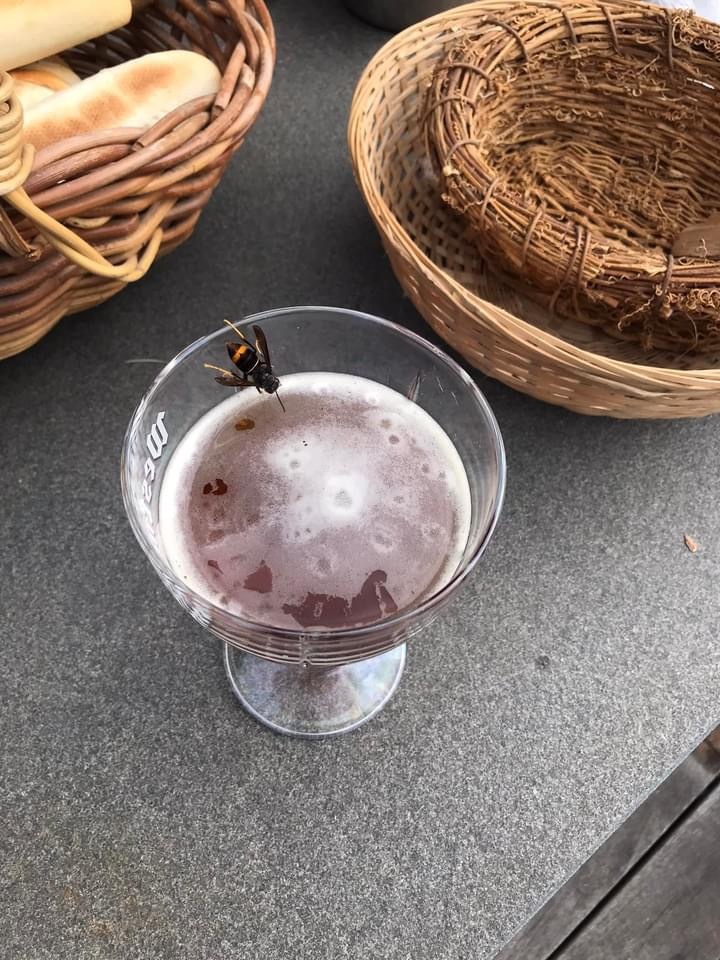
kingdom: Animalia
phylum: Arthropoda
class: Insecta
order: Hymenoptera
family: Vespidae
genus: Vespa
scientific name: Vespa velutina
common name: Asian hornet
